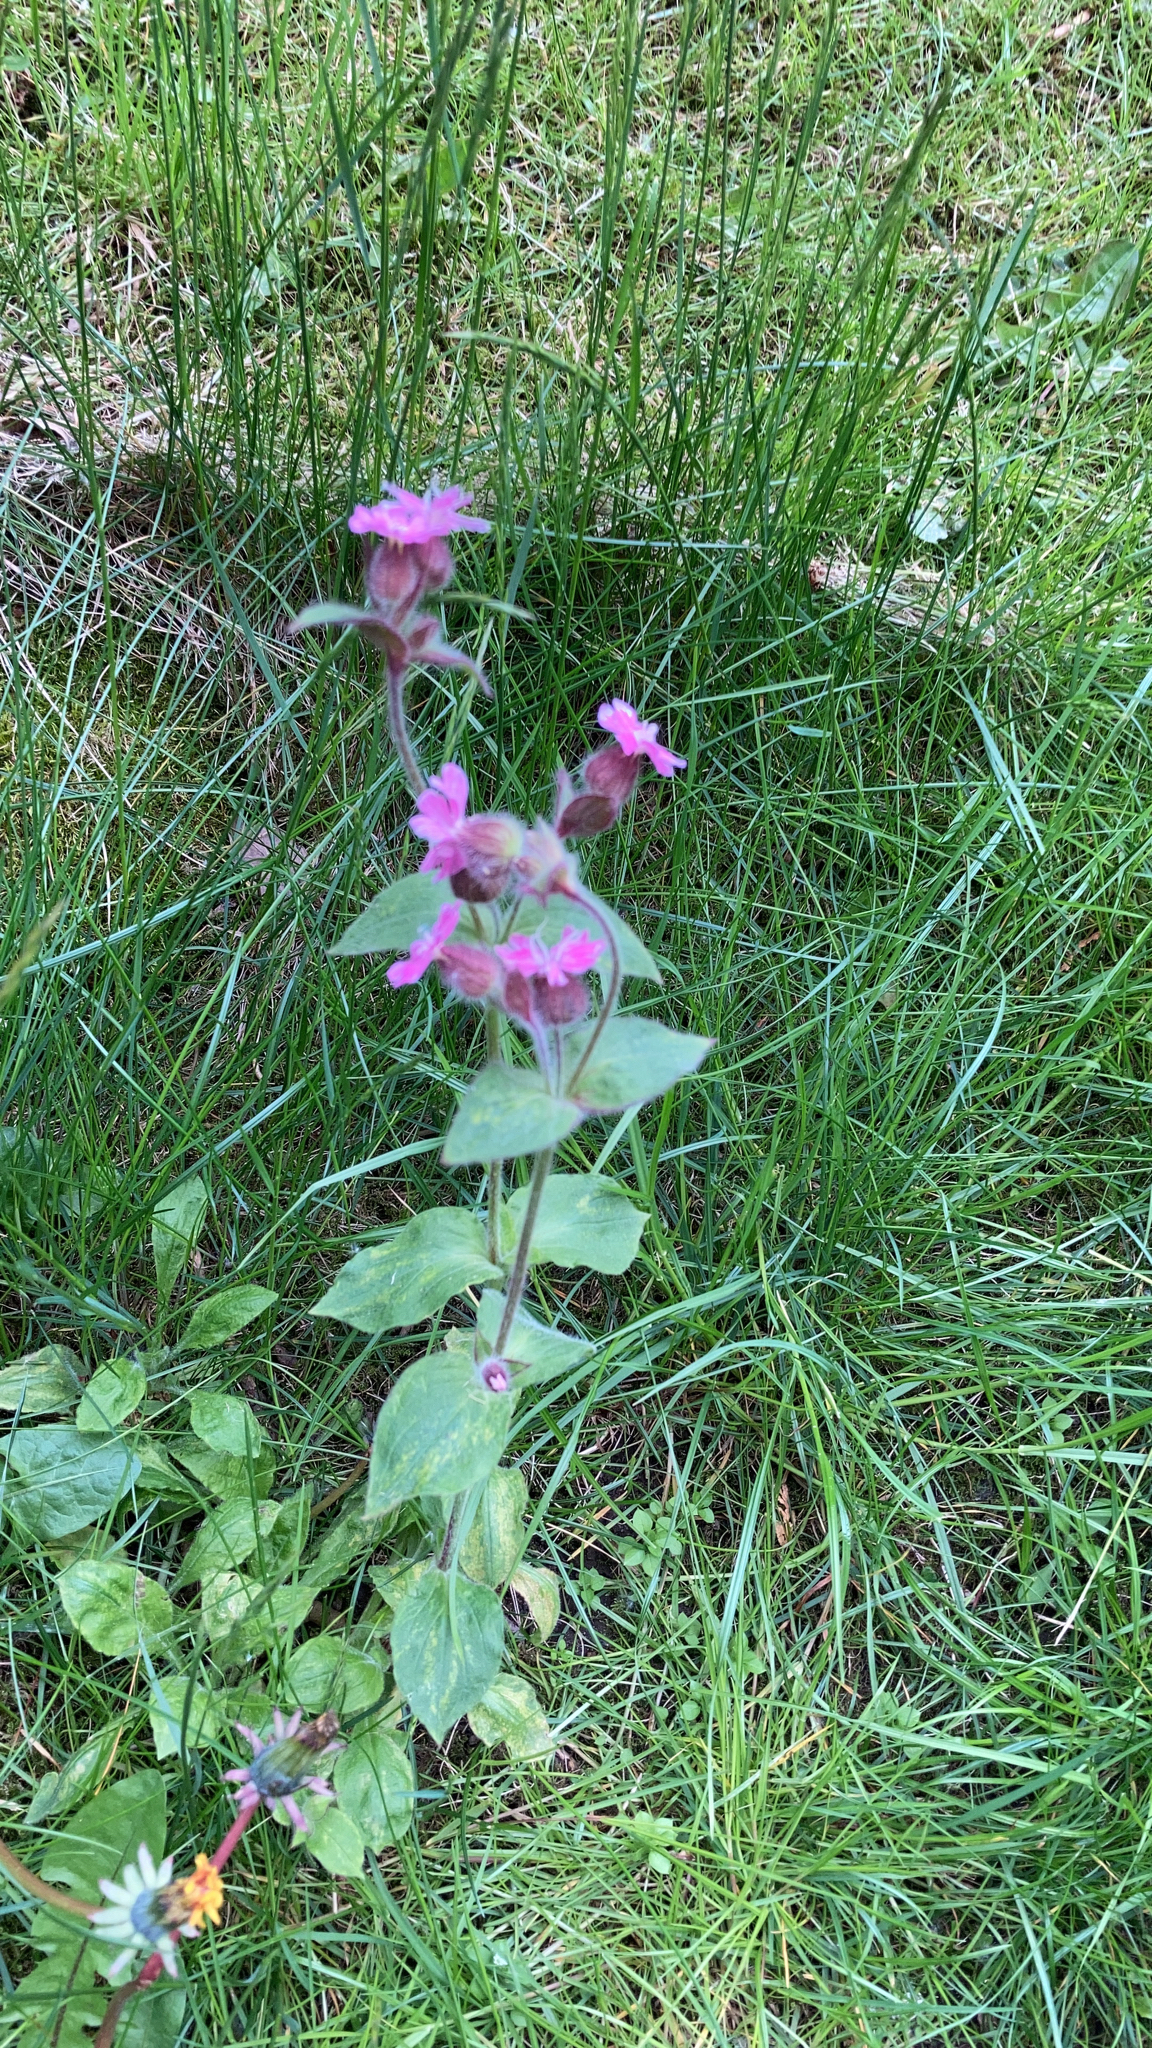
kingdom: Plantae
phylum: Tracheophyta
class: Magnoliopsida
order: Caryophyllales
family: Caryophyllaceae
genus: Silene
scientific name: Silene dioica
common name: Red campion
